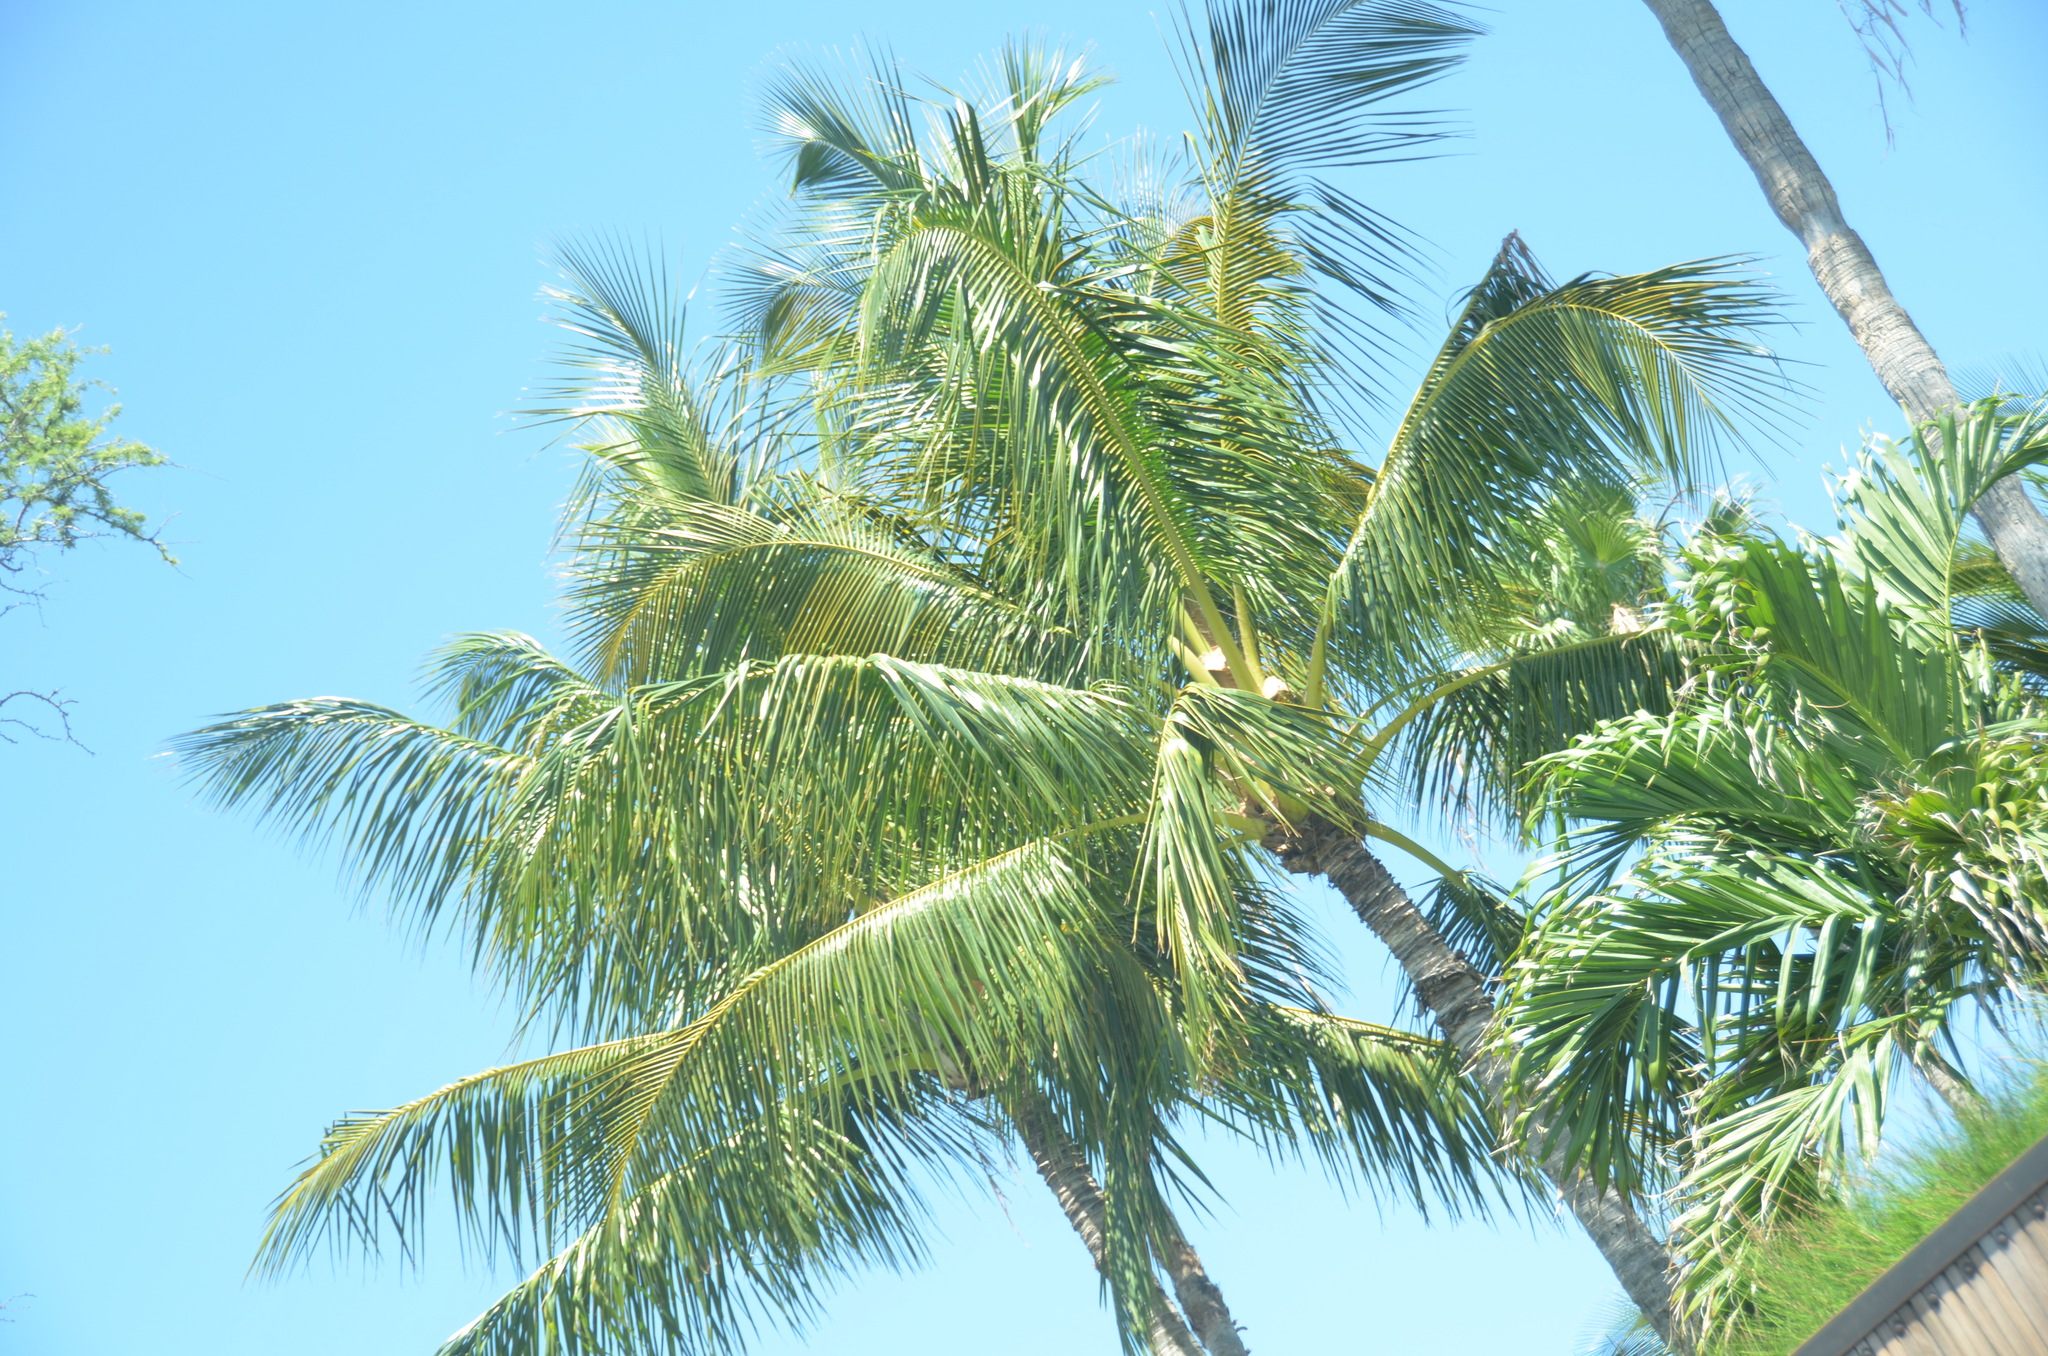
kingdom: Plantae
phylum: Tracheophyta
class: Liliopsida
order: Arecales
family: Arecaceae
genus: Cocos
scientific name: Cocos nucifera
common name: Coconut palm
